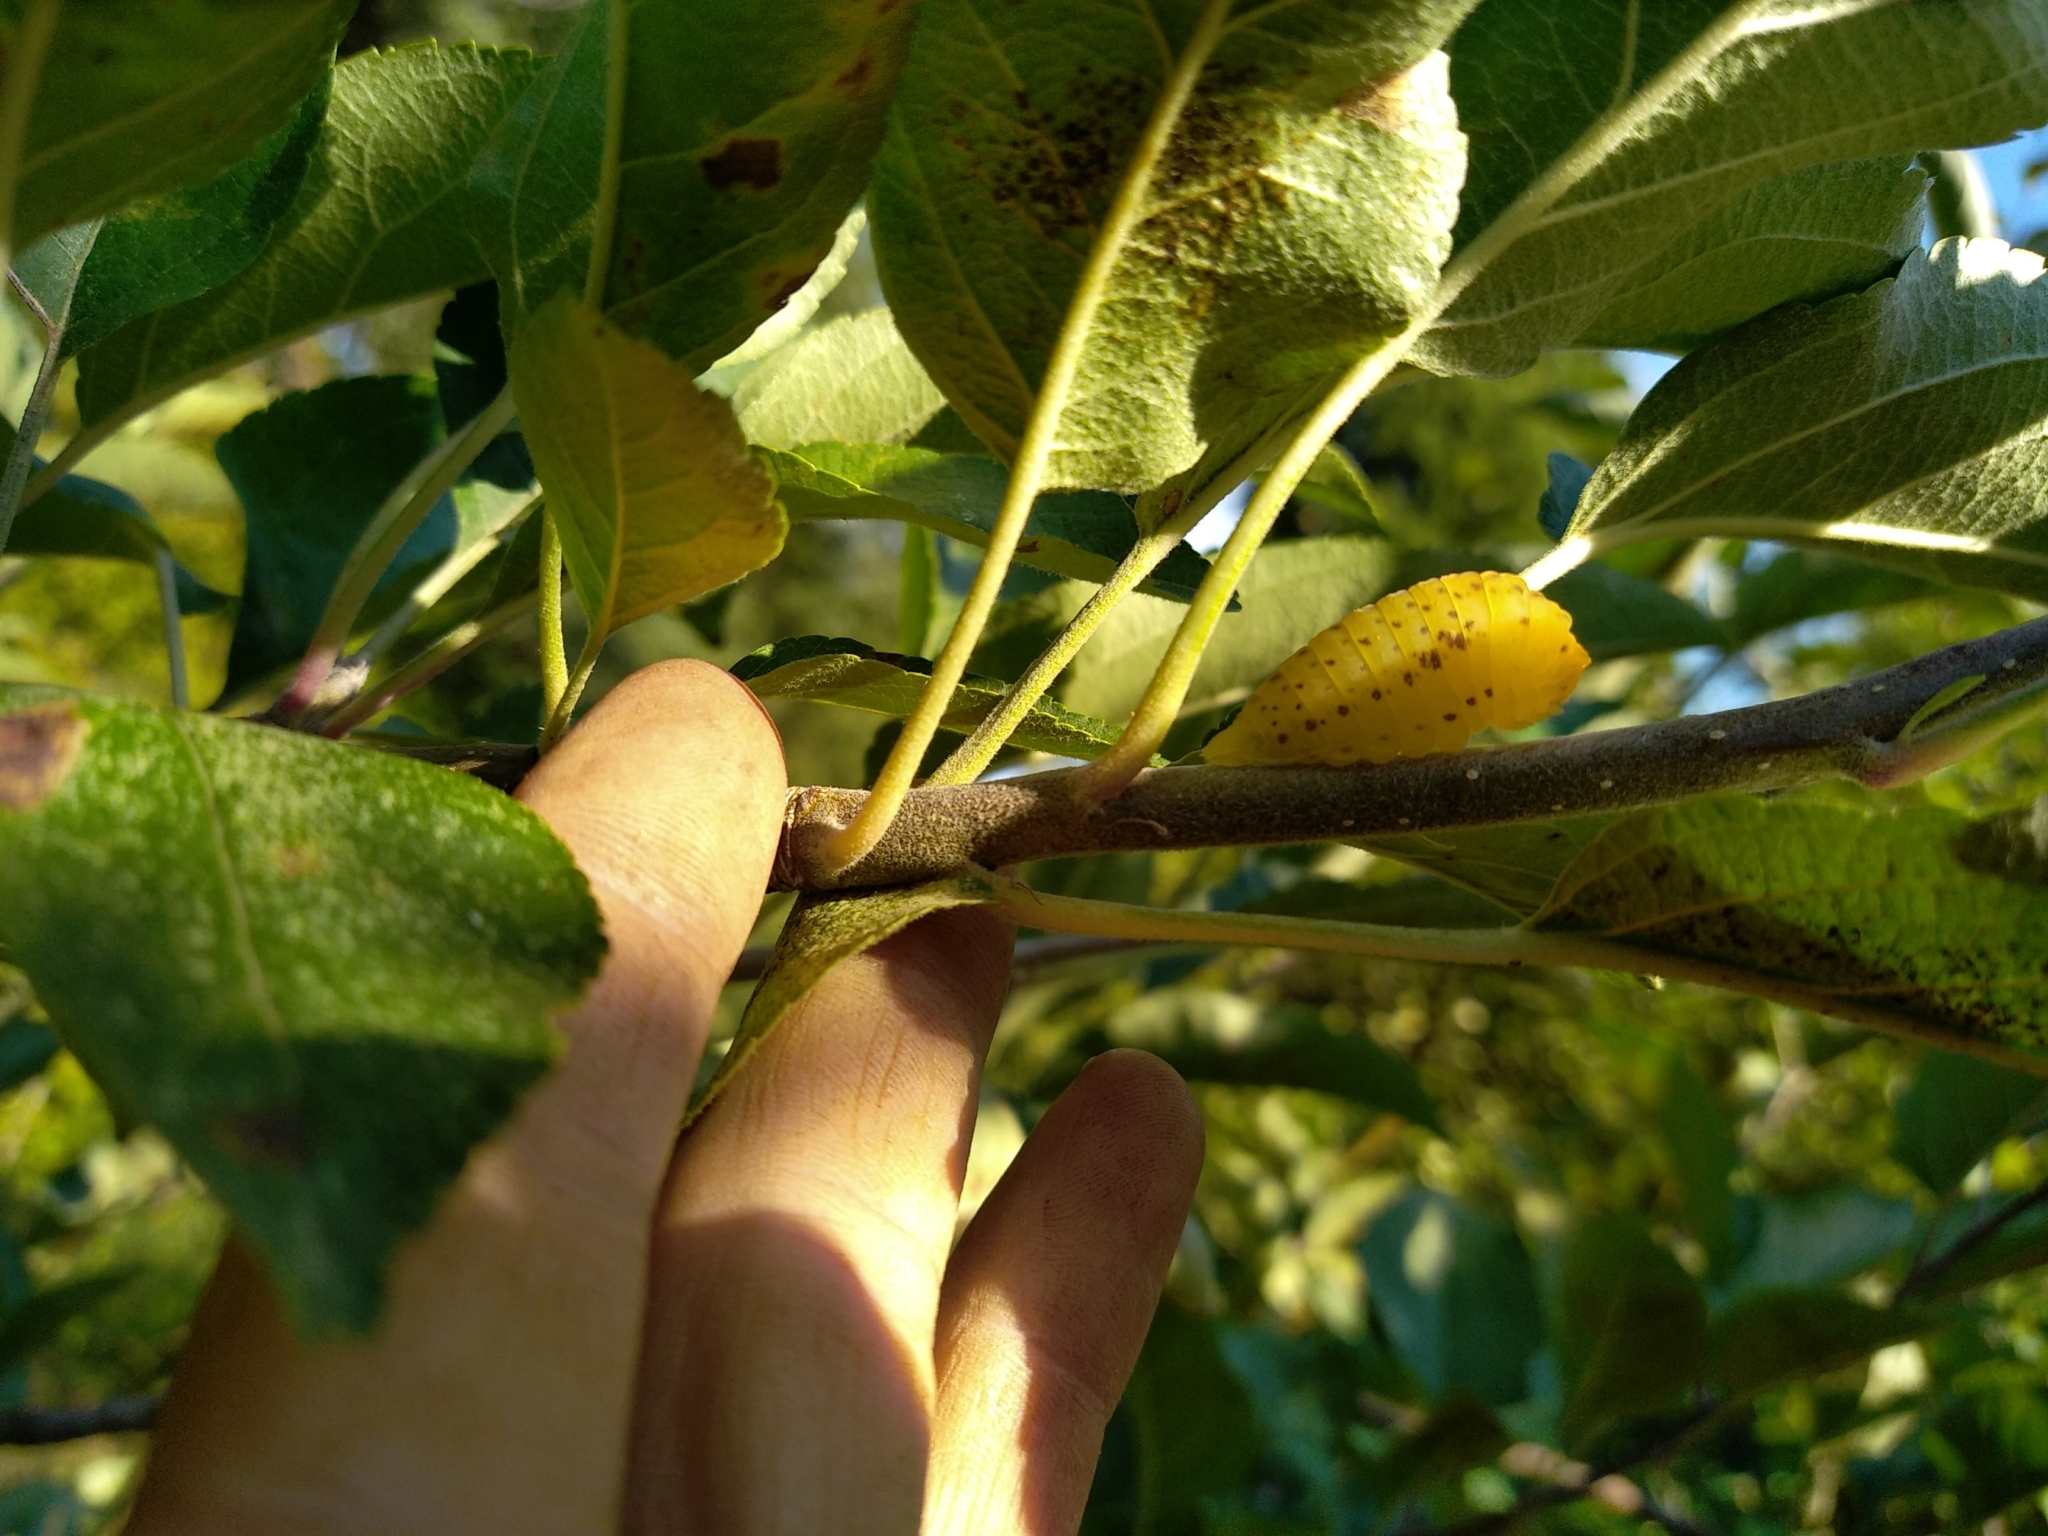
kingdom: Animalia
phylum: Arthropoda
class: Insecta
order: Lepidoptera
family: Papilionidae
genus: Iphiclides
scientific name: Iphiclides podalirius
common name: Scarce swallowtail
